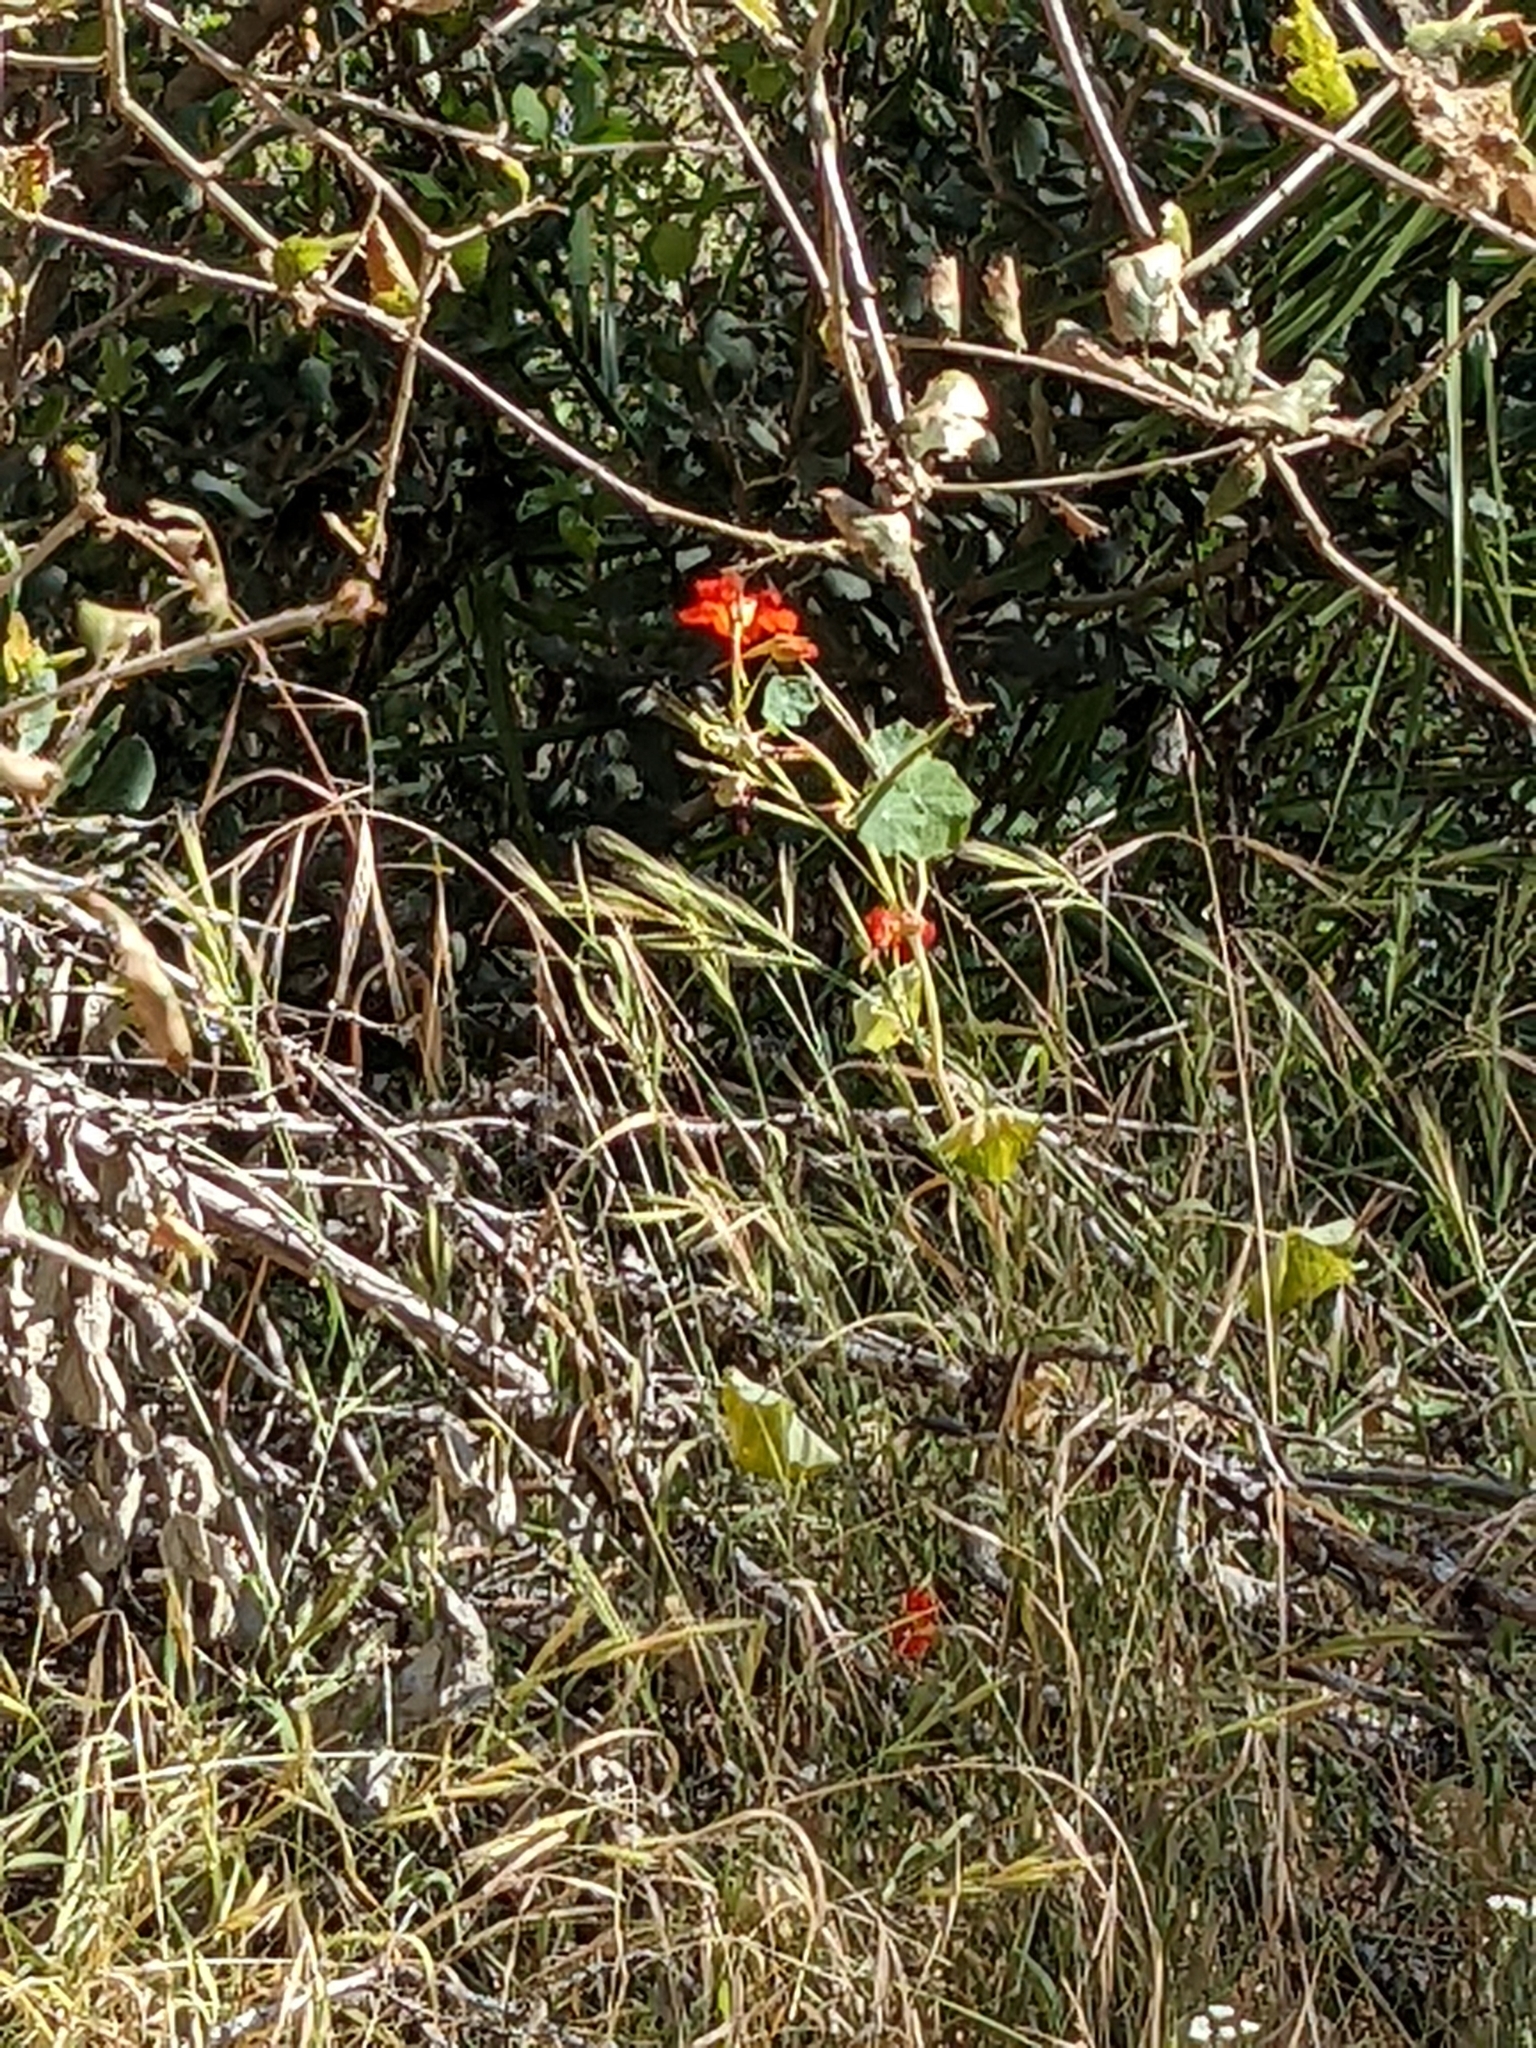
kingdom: Plantae
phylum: Tracheophyta
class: Magnoliopsida
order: Brassicales
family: Tropaeolaceae
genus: Tropaeolum
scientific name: Tropaeolum majus
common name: Nasturtium
